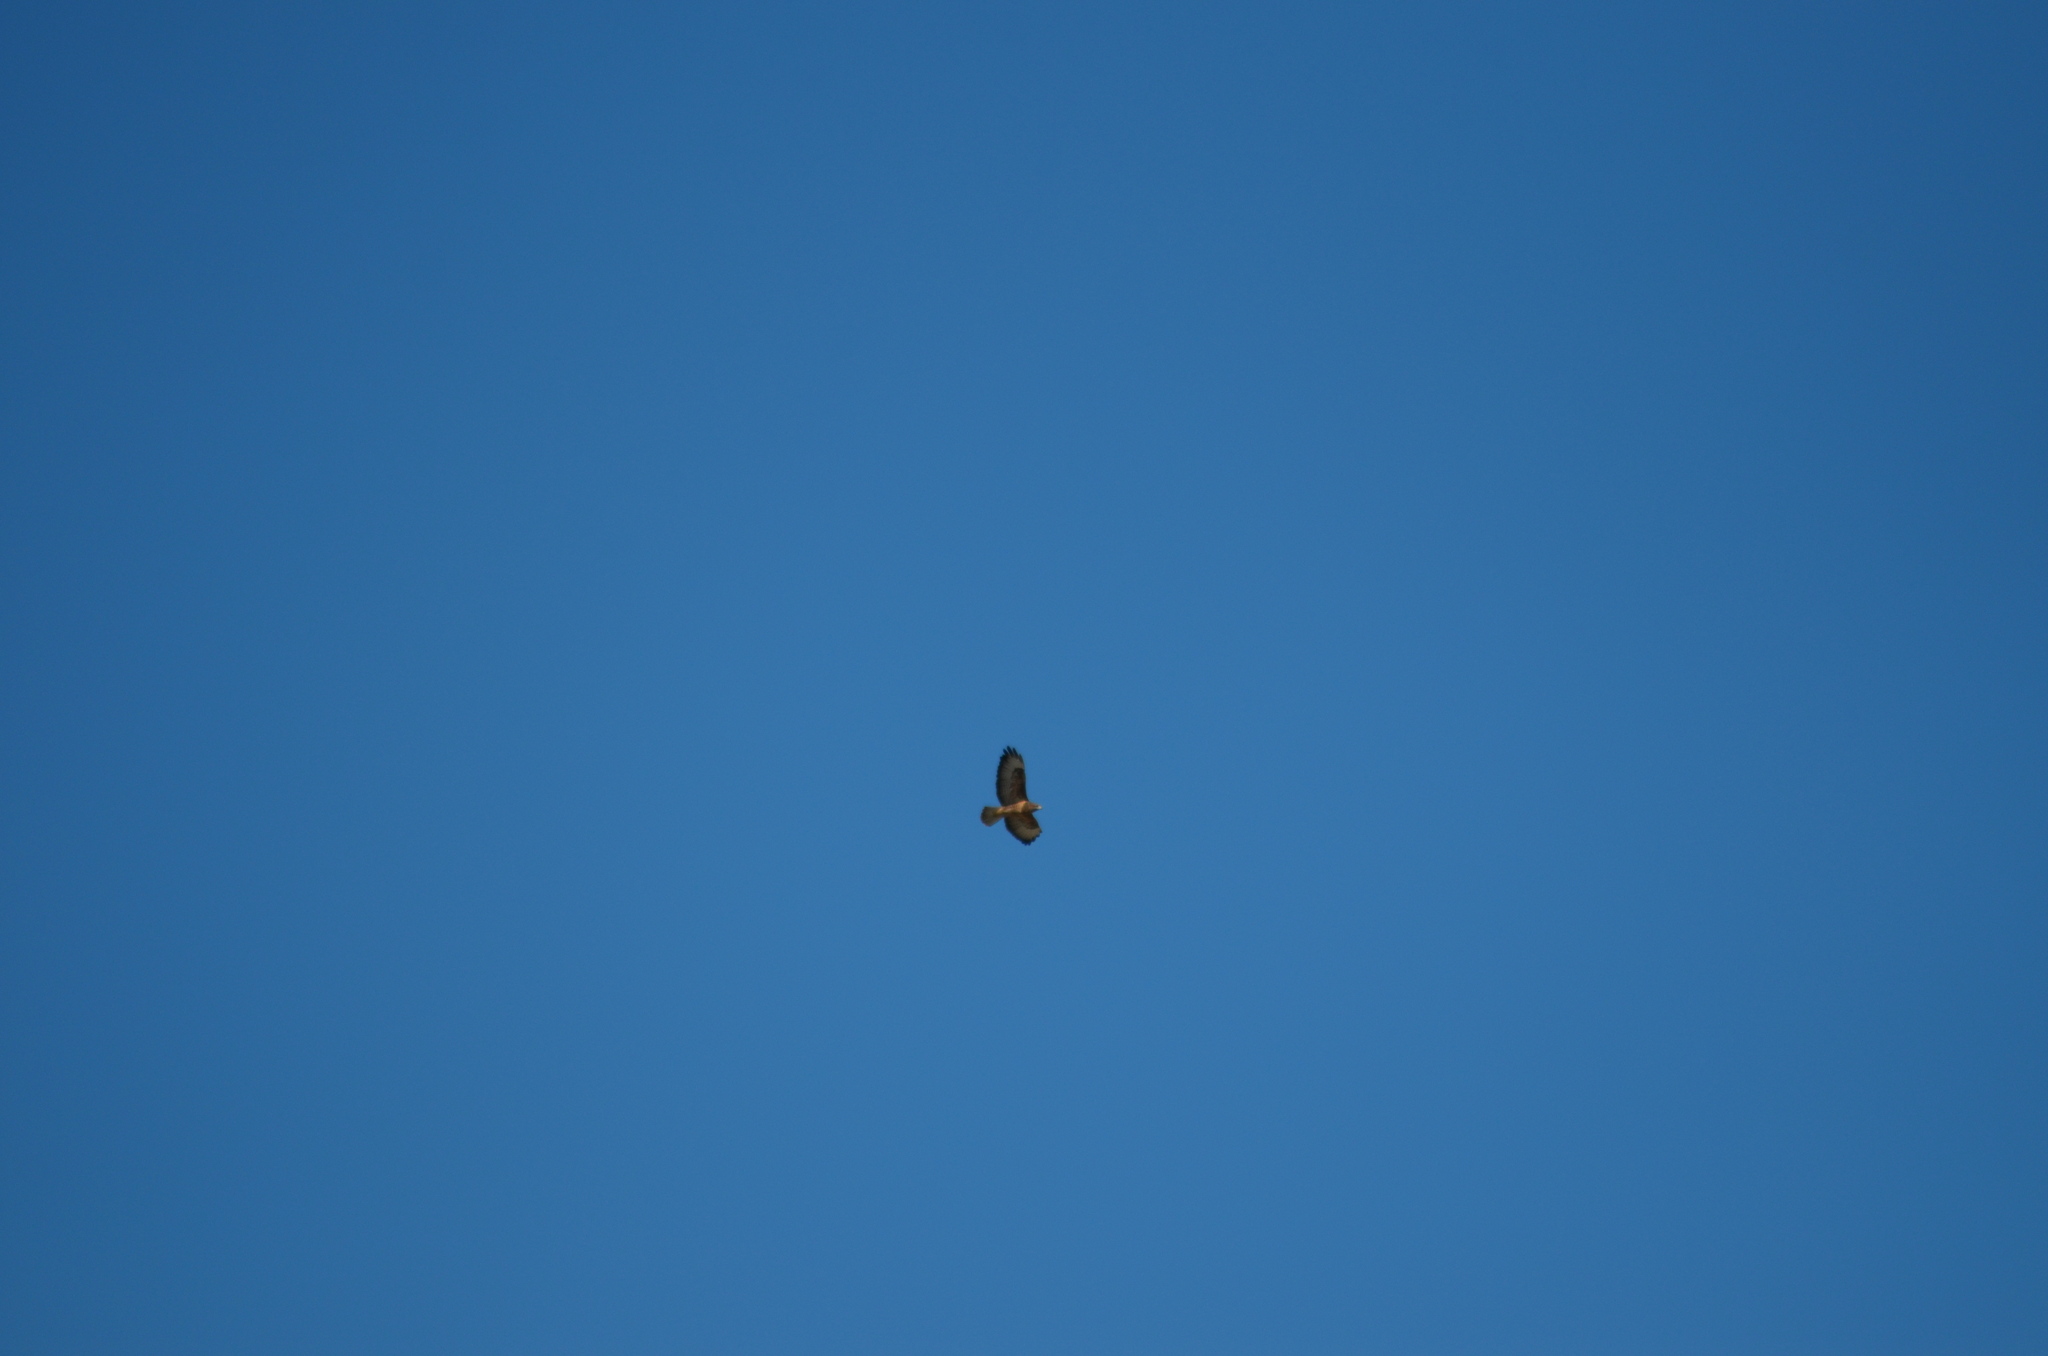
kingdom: Animalia
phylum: Chordata
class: Aves
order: Accipitriformes
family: Accipitridae
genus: Buteo
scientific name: Buteo buteo
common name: Common buzzard
